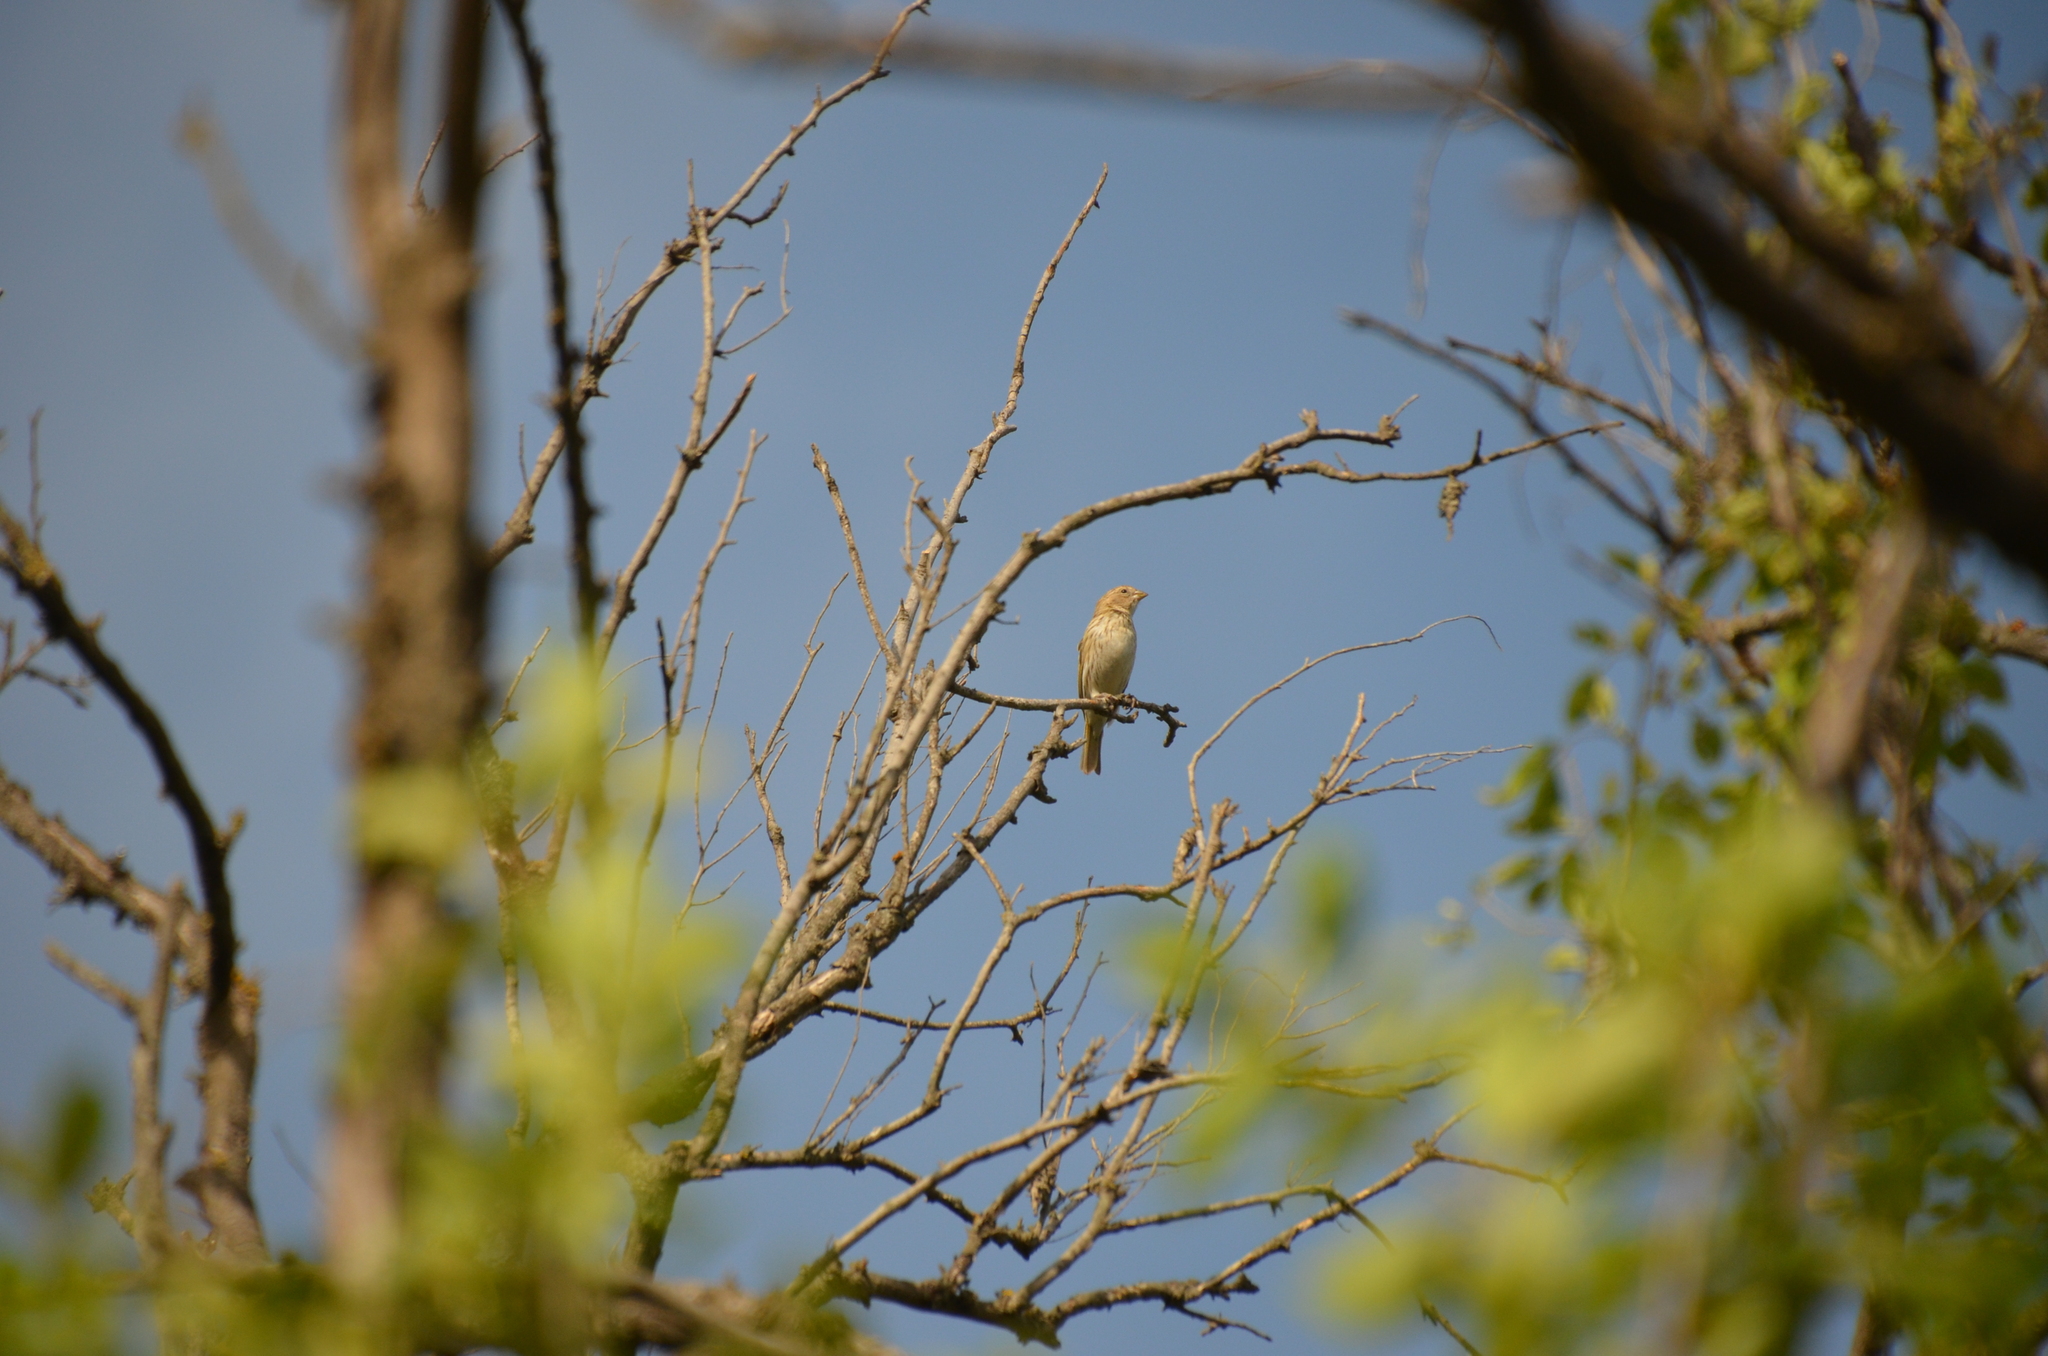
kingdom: Animalia
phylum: Chordata
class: Aves
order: Passeriformes
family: Thraupidae
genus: Sicalis
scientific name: Sicalis flaveola
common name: Saffron finch
